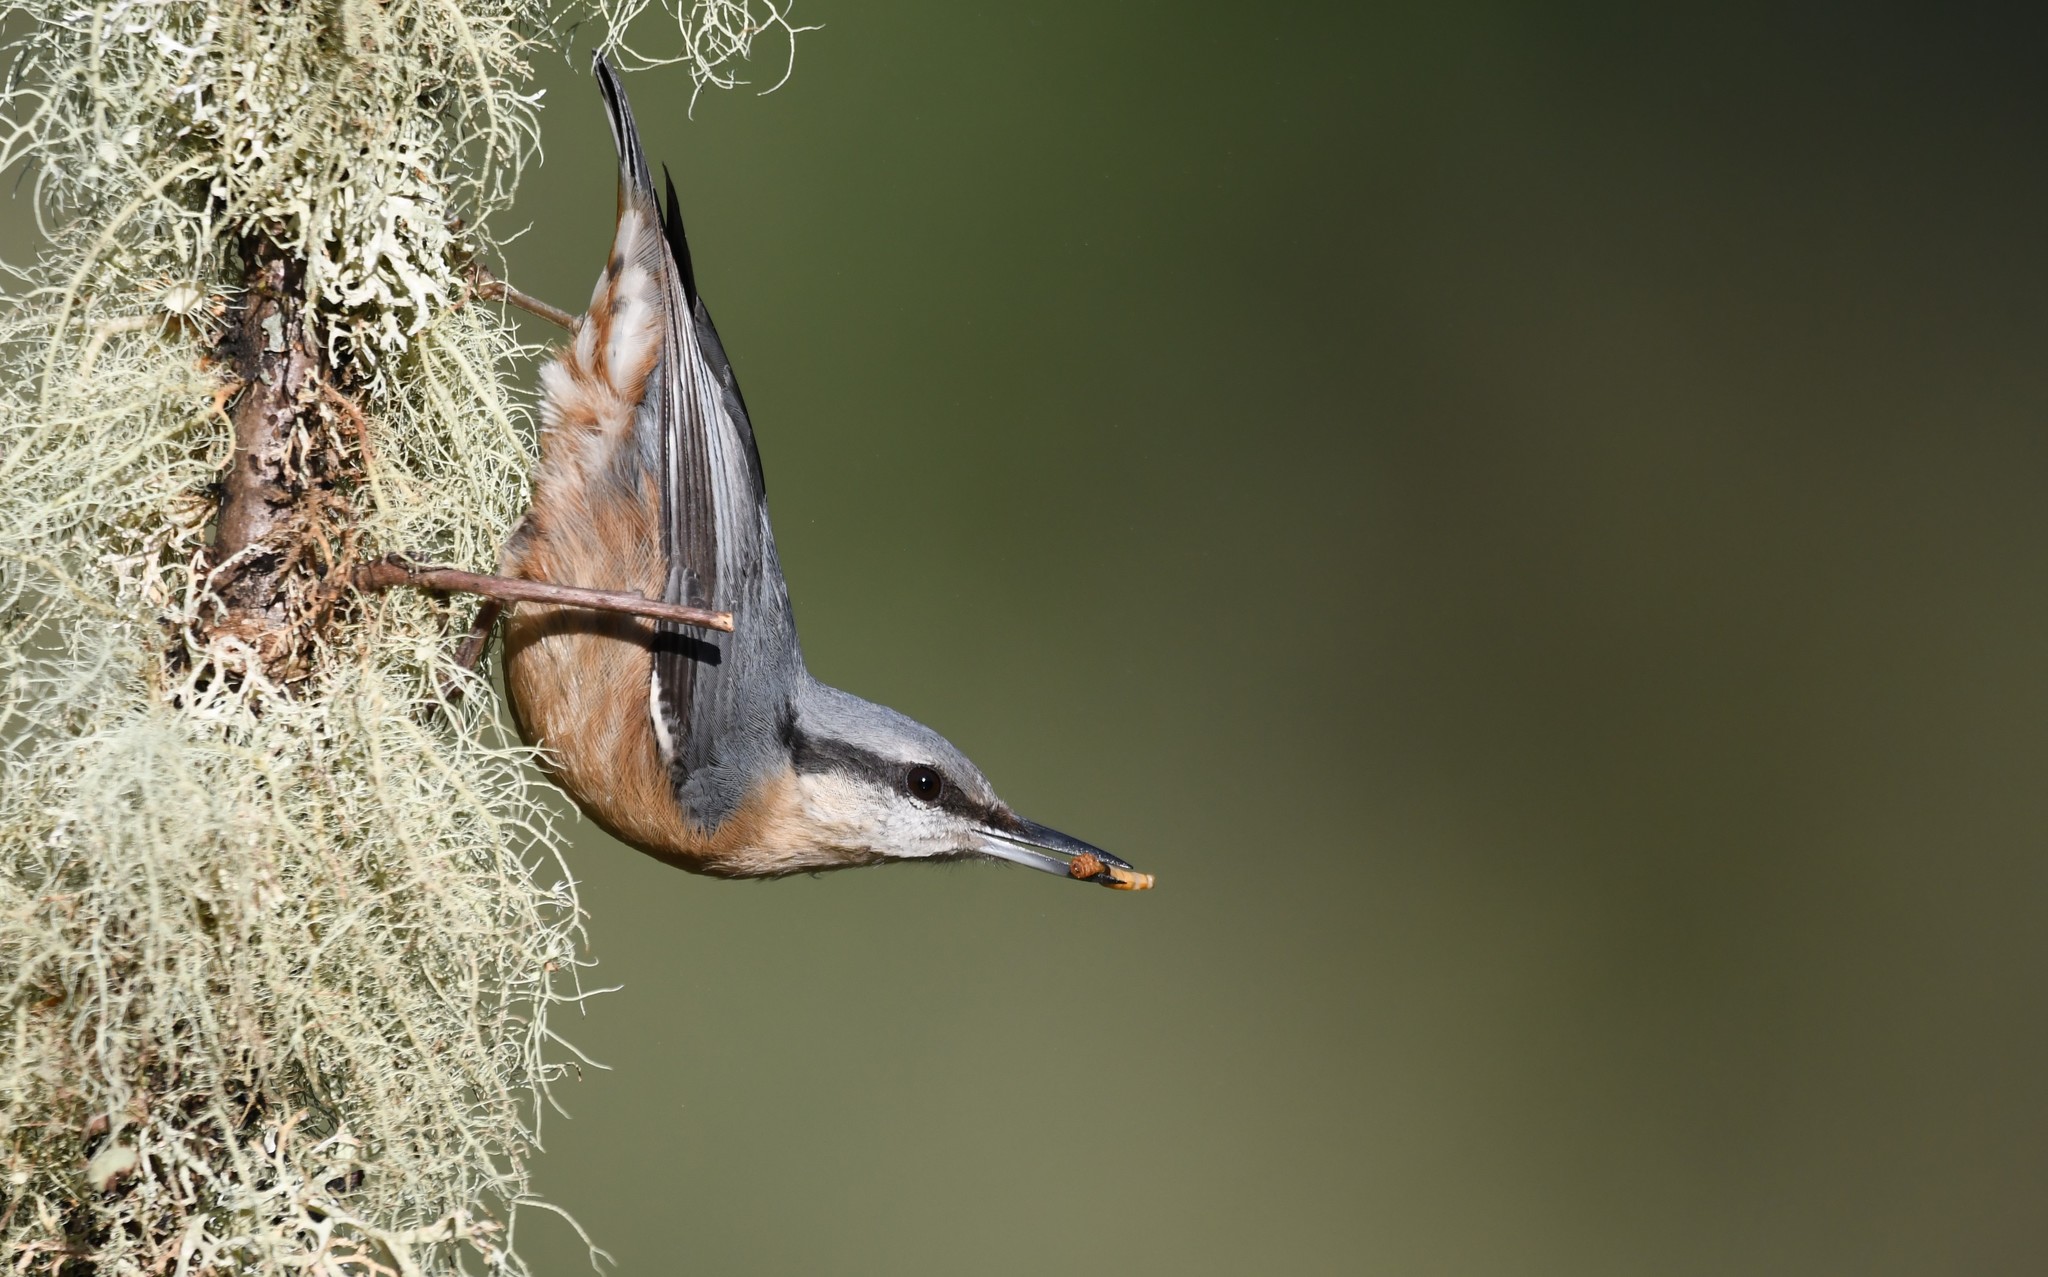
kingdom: Animalia
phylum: Chordata
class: Aves
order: Passeriformes
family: Sittidae
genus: Sitta
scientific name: Sitta europaea
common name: Eurasian nuthatch
